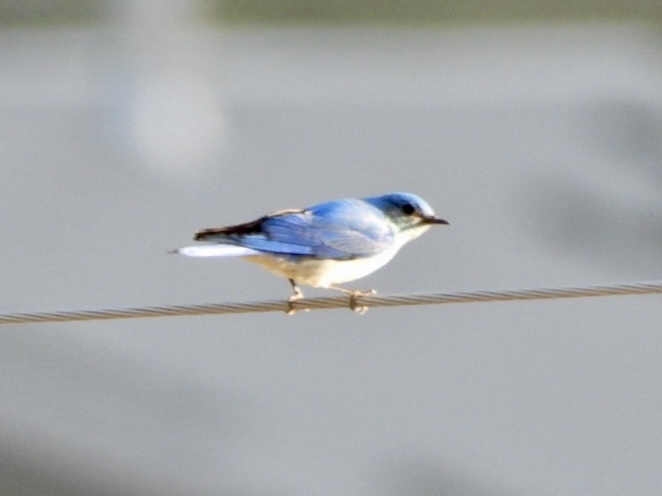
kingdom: Animalia
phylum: Chordata
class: Aves
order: Passeriformes
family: Turdidae
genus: Sialia
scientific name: Sialia currucoides
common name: Mountain bluebird
